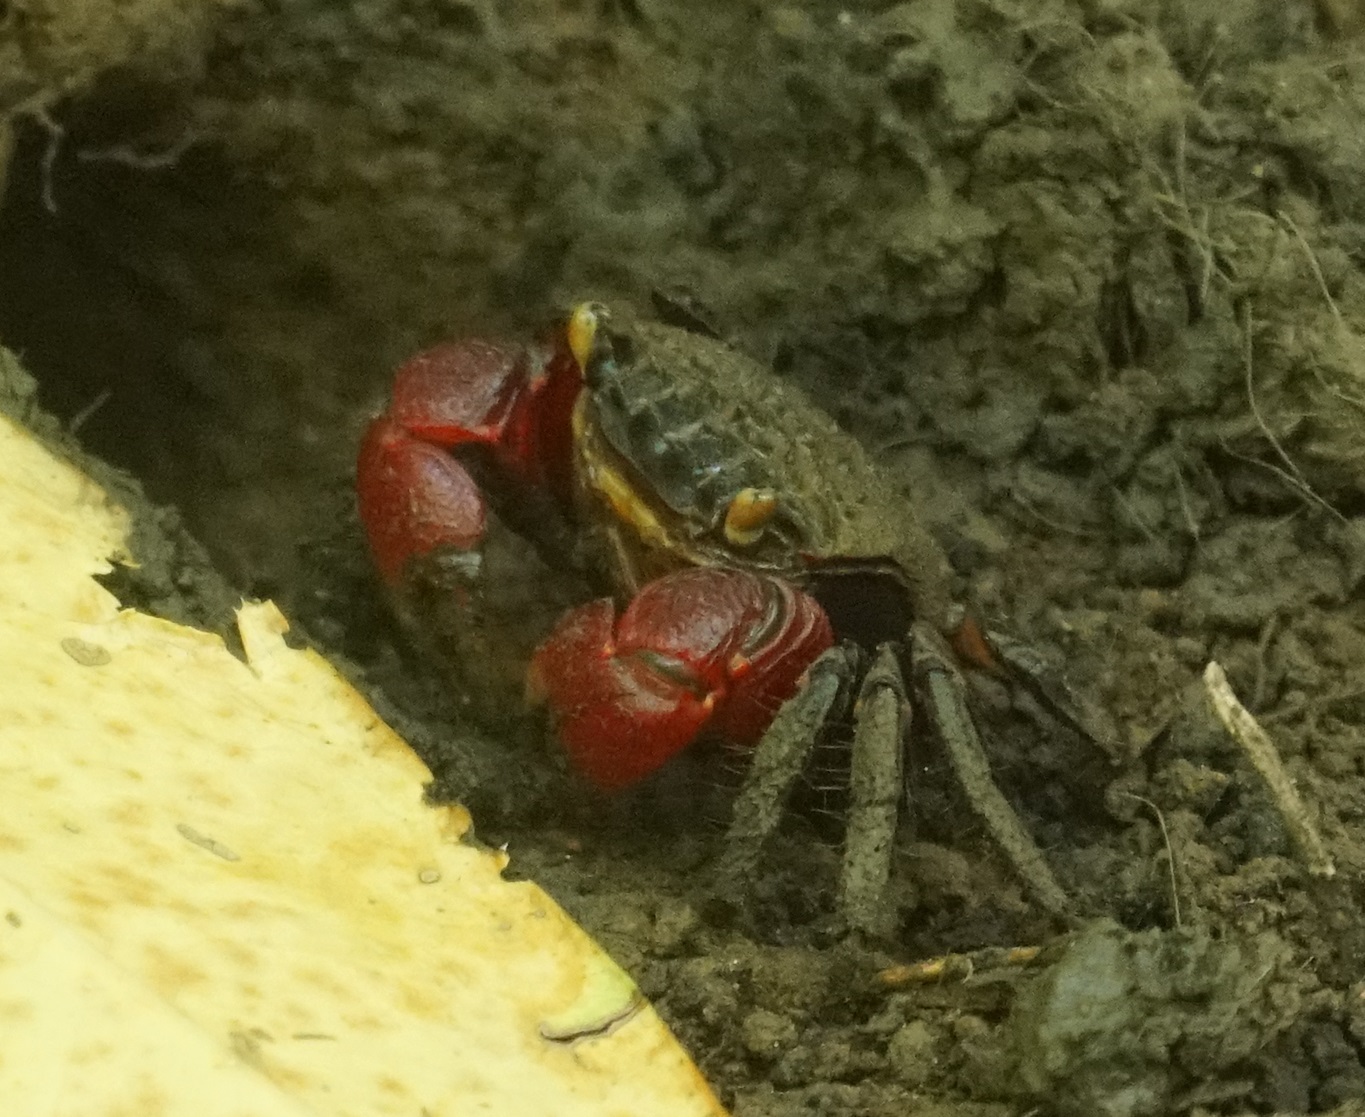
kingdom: Animalia
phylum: Arthropoda
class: Malacostraca
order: Decapoda
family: Sesarmidae
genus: Neosarmatium
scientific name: Neosarmatium fourmanoiri
